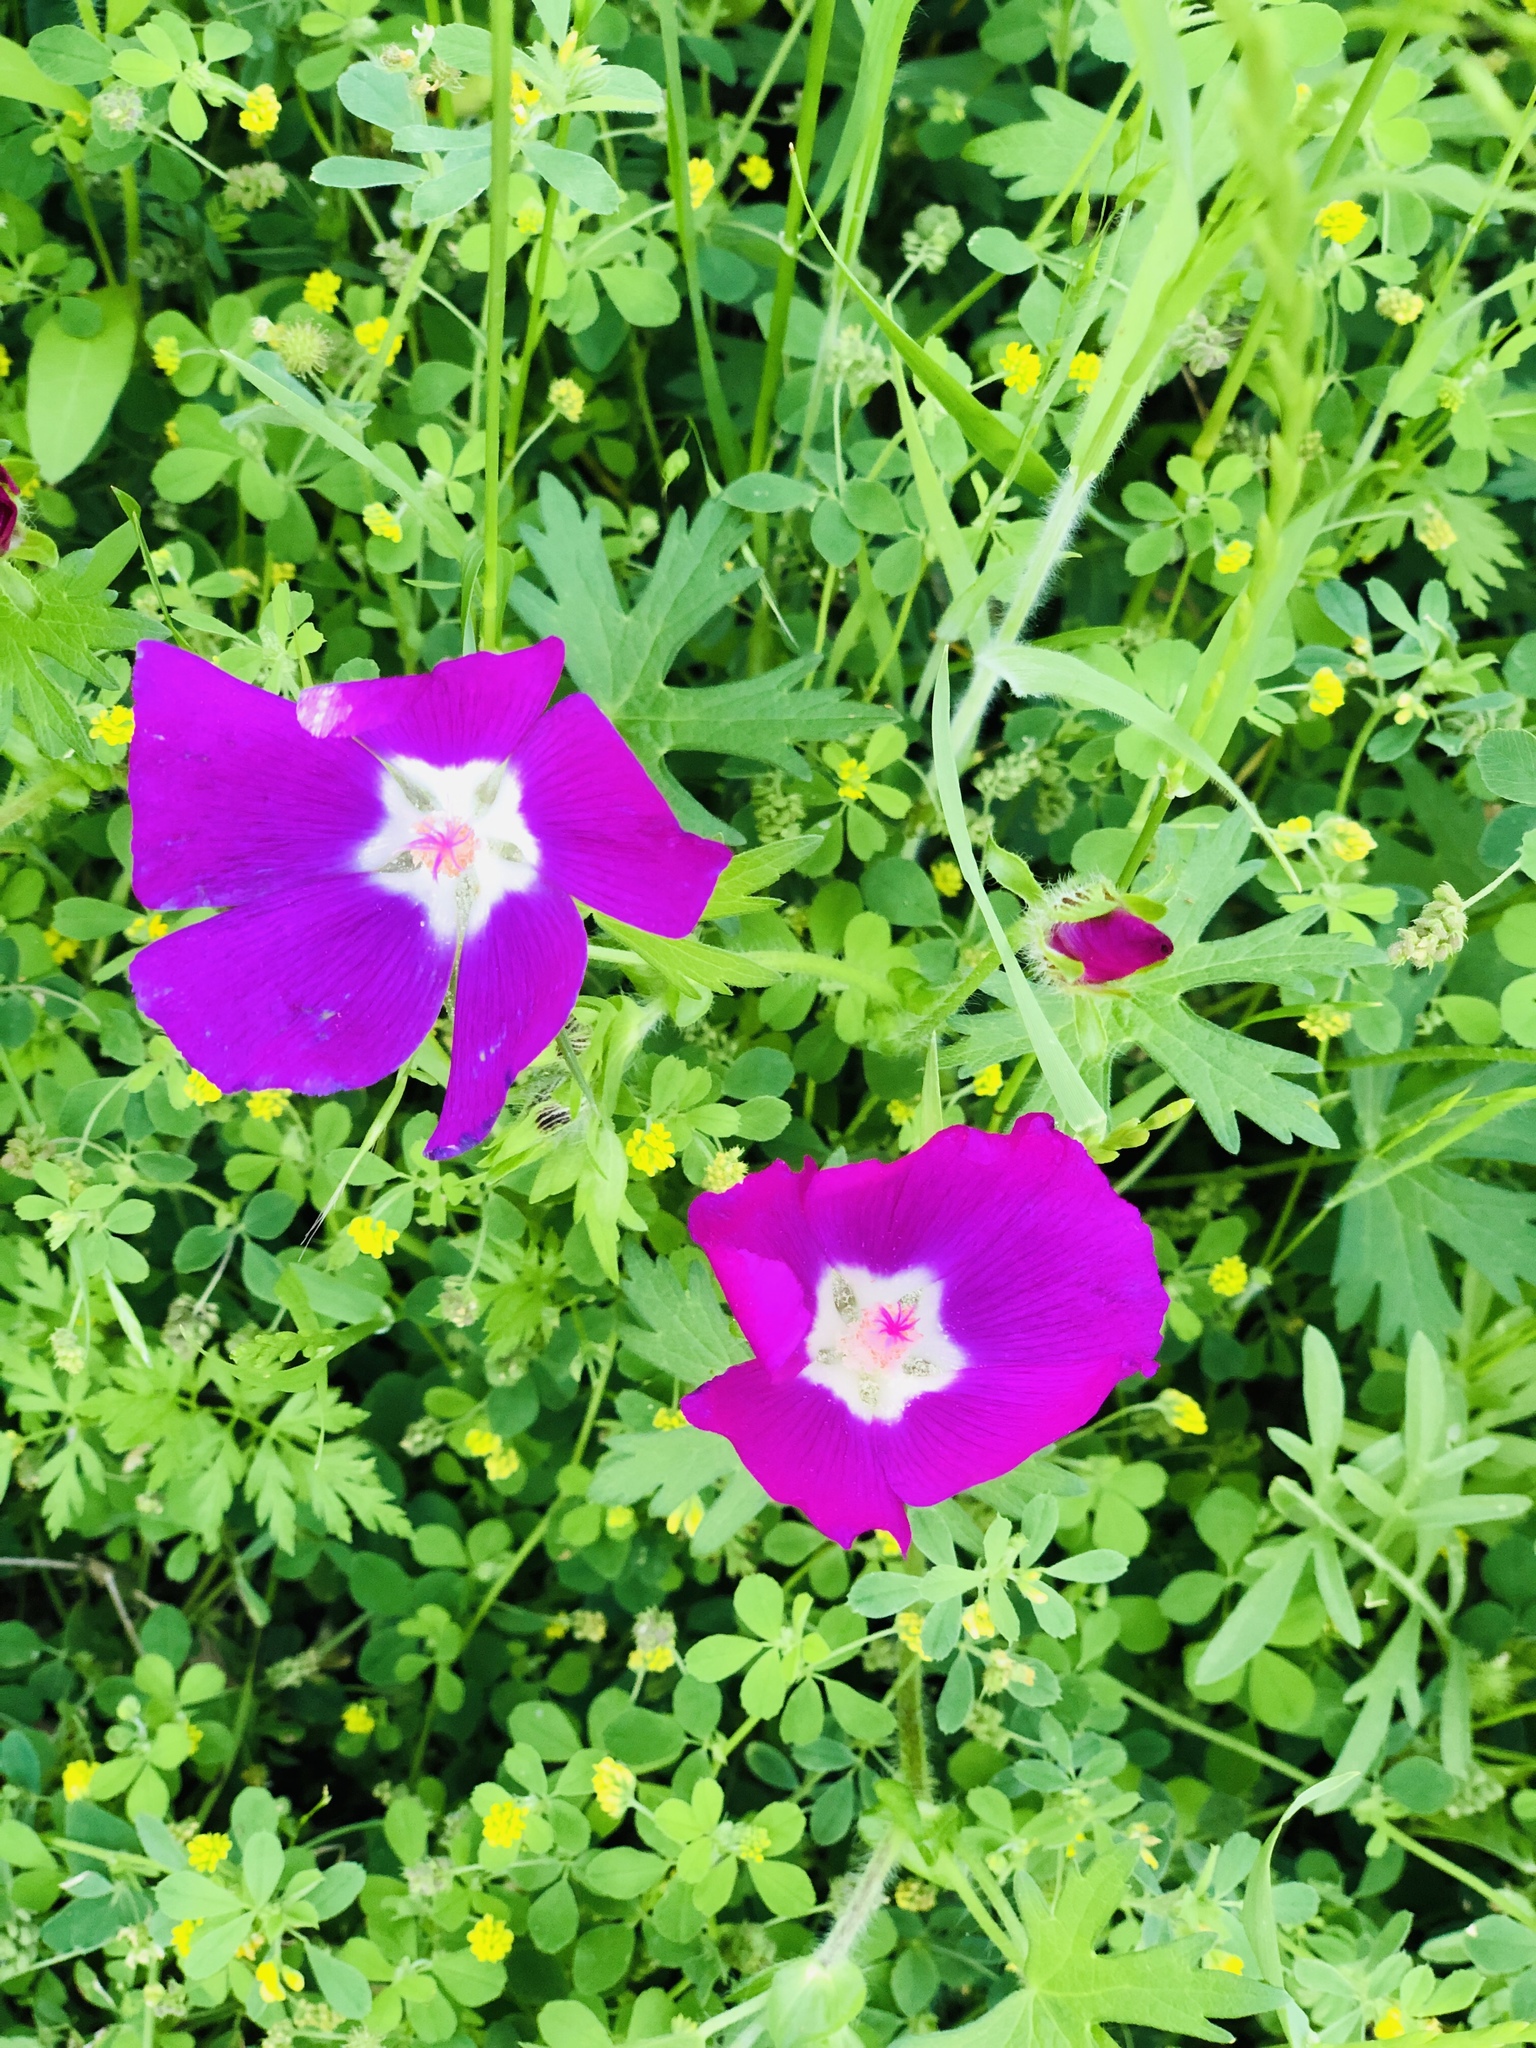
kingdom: Plantae
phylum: Tracheophyta
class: Magnoliopsida
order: Malvales
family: Malvaceae
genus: Callirhoe
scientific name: Callirhoe involucrata
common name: Purple poppy-mallow
